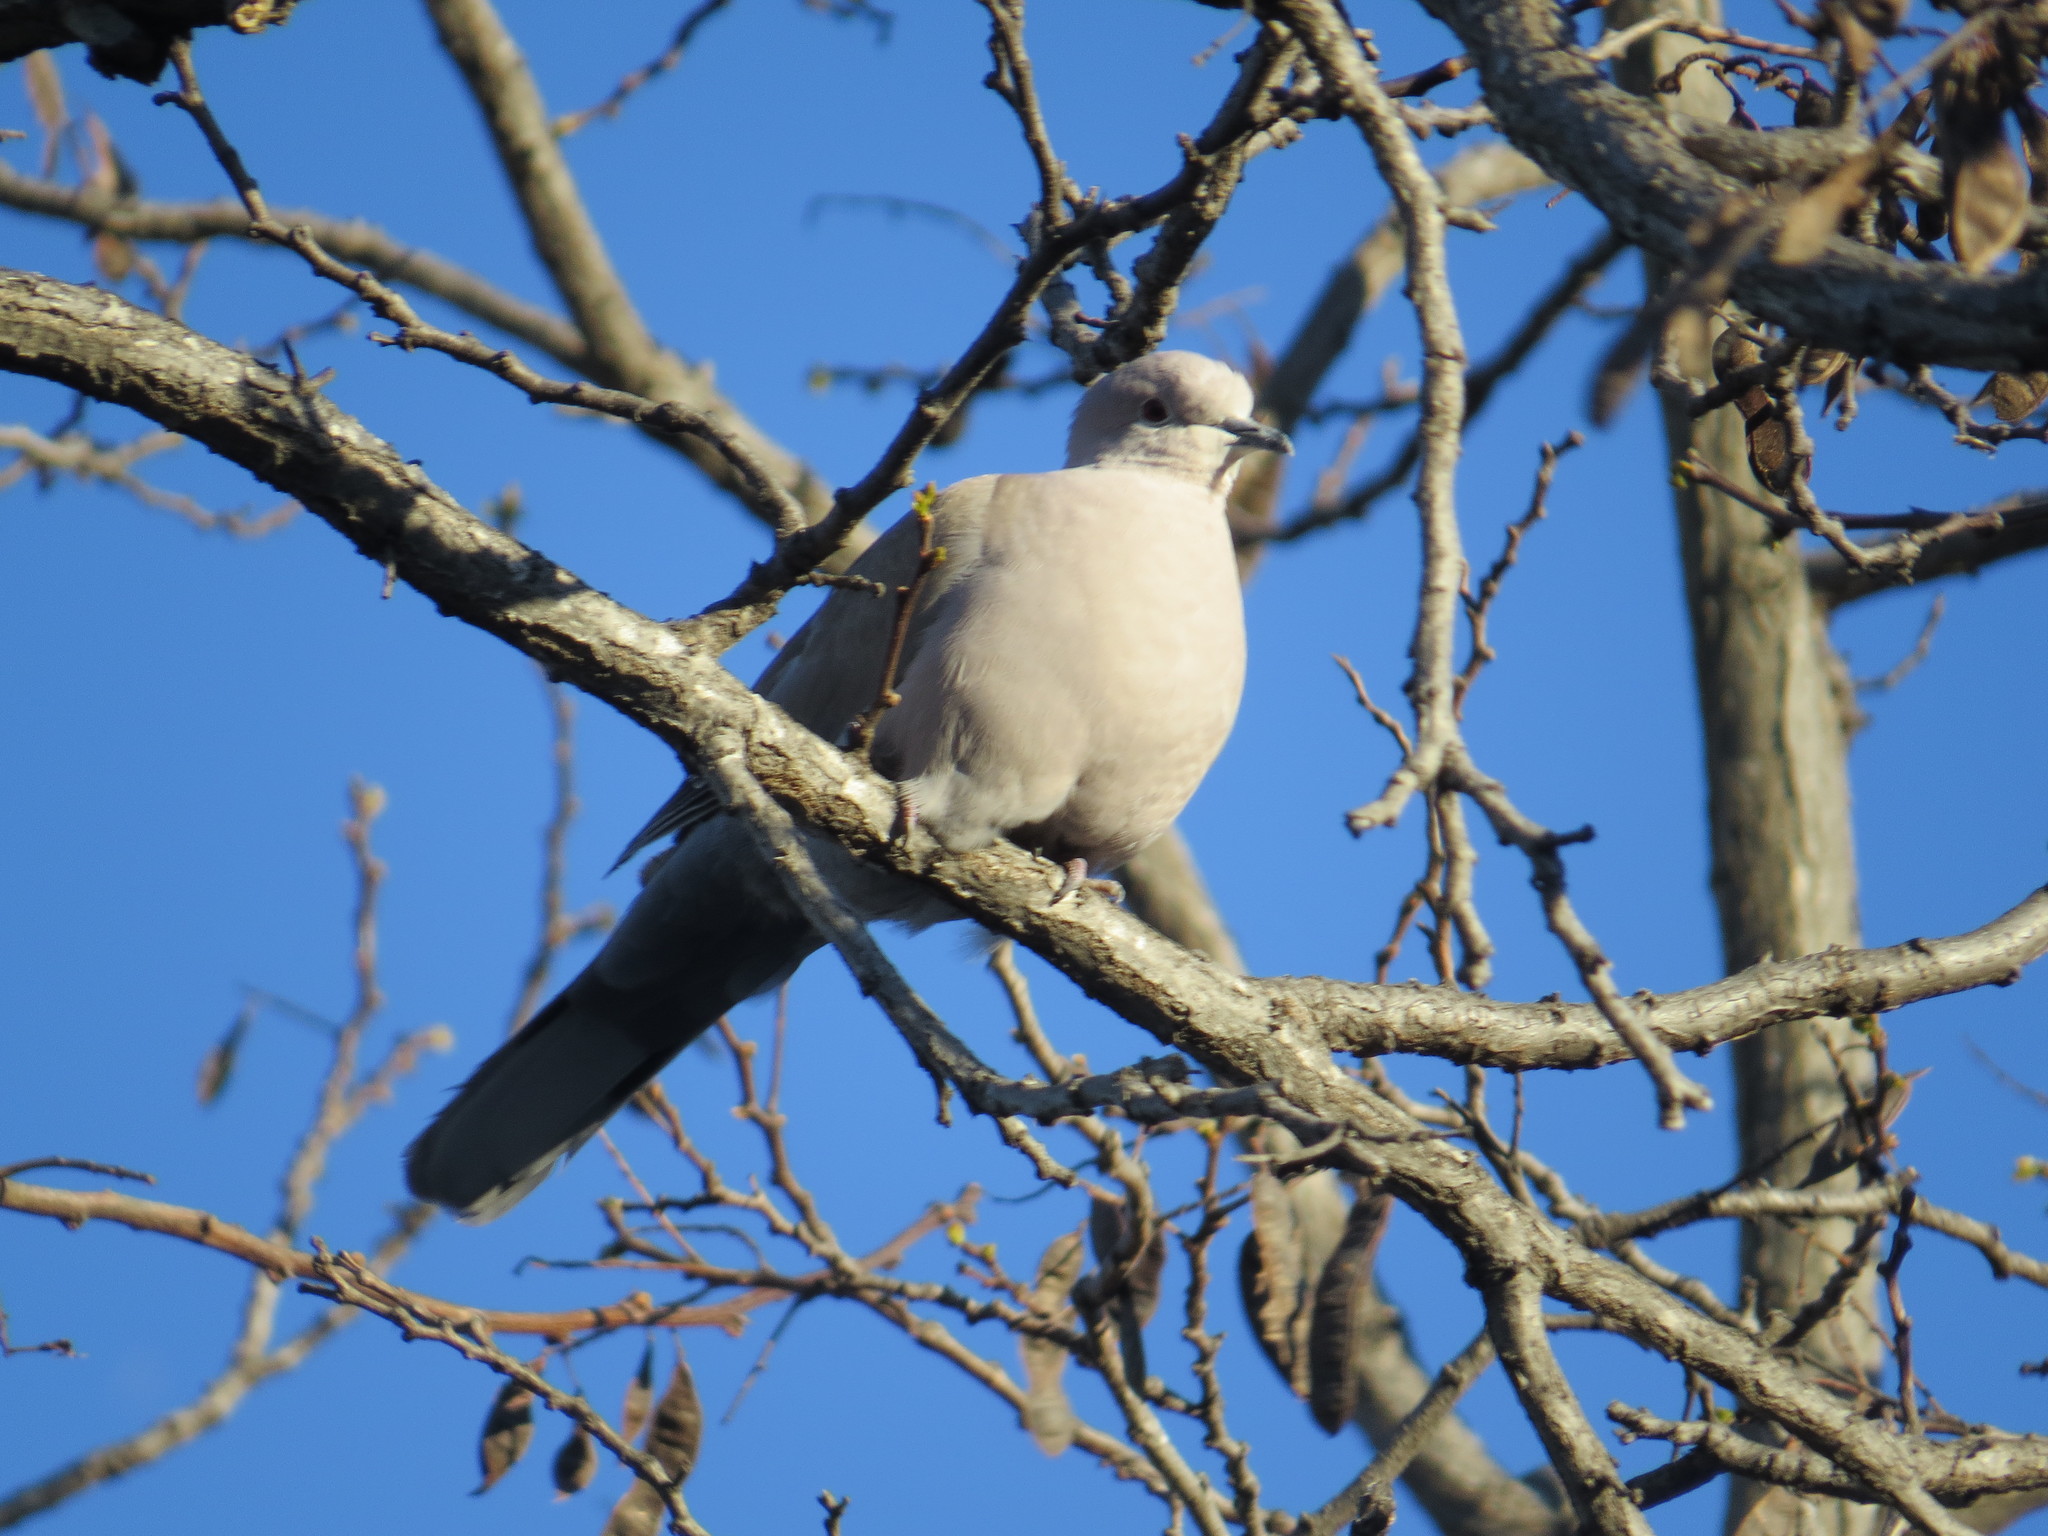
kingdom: Animalia
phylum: Chordata
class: Aves
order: Columbiformes
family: Columbidae
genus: Streptopelia
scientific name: Streptopelia decaocto
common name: Eurasian collared dove
